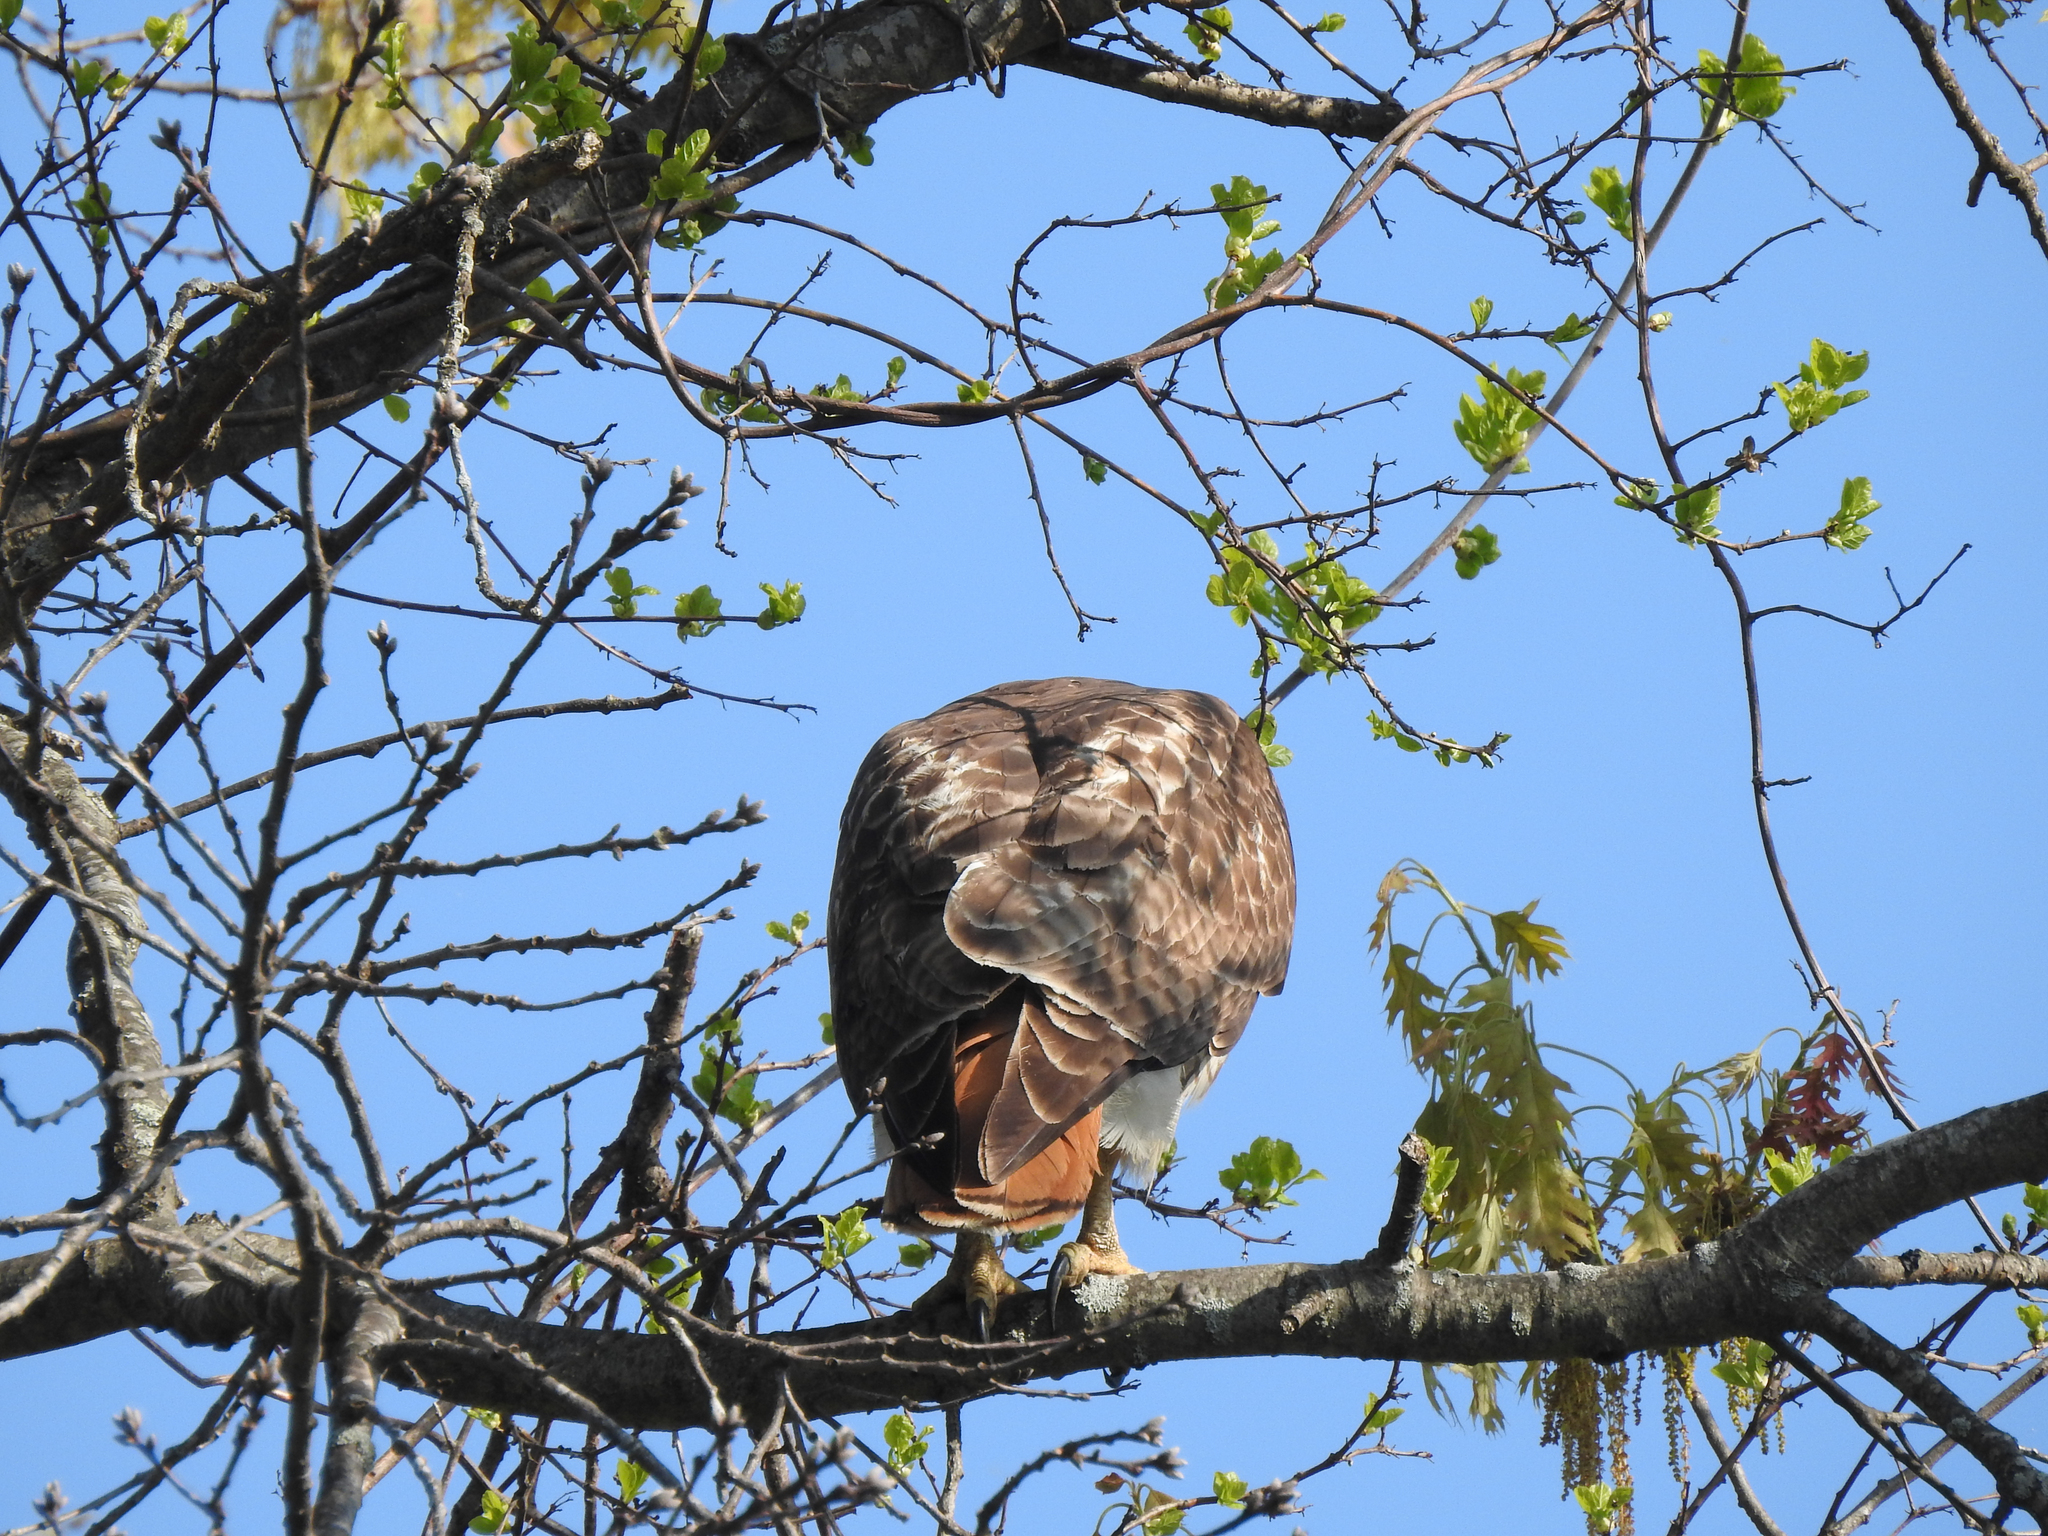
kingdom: Animalia
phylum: Chordata
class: Aves
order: Accipitriformes
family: Accipitridae
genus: Buteo
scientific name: Buteo jamaicensis
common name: Red-tailed hawk
